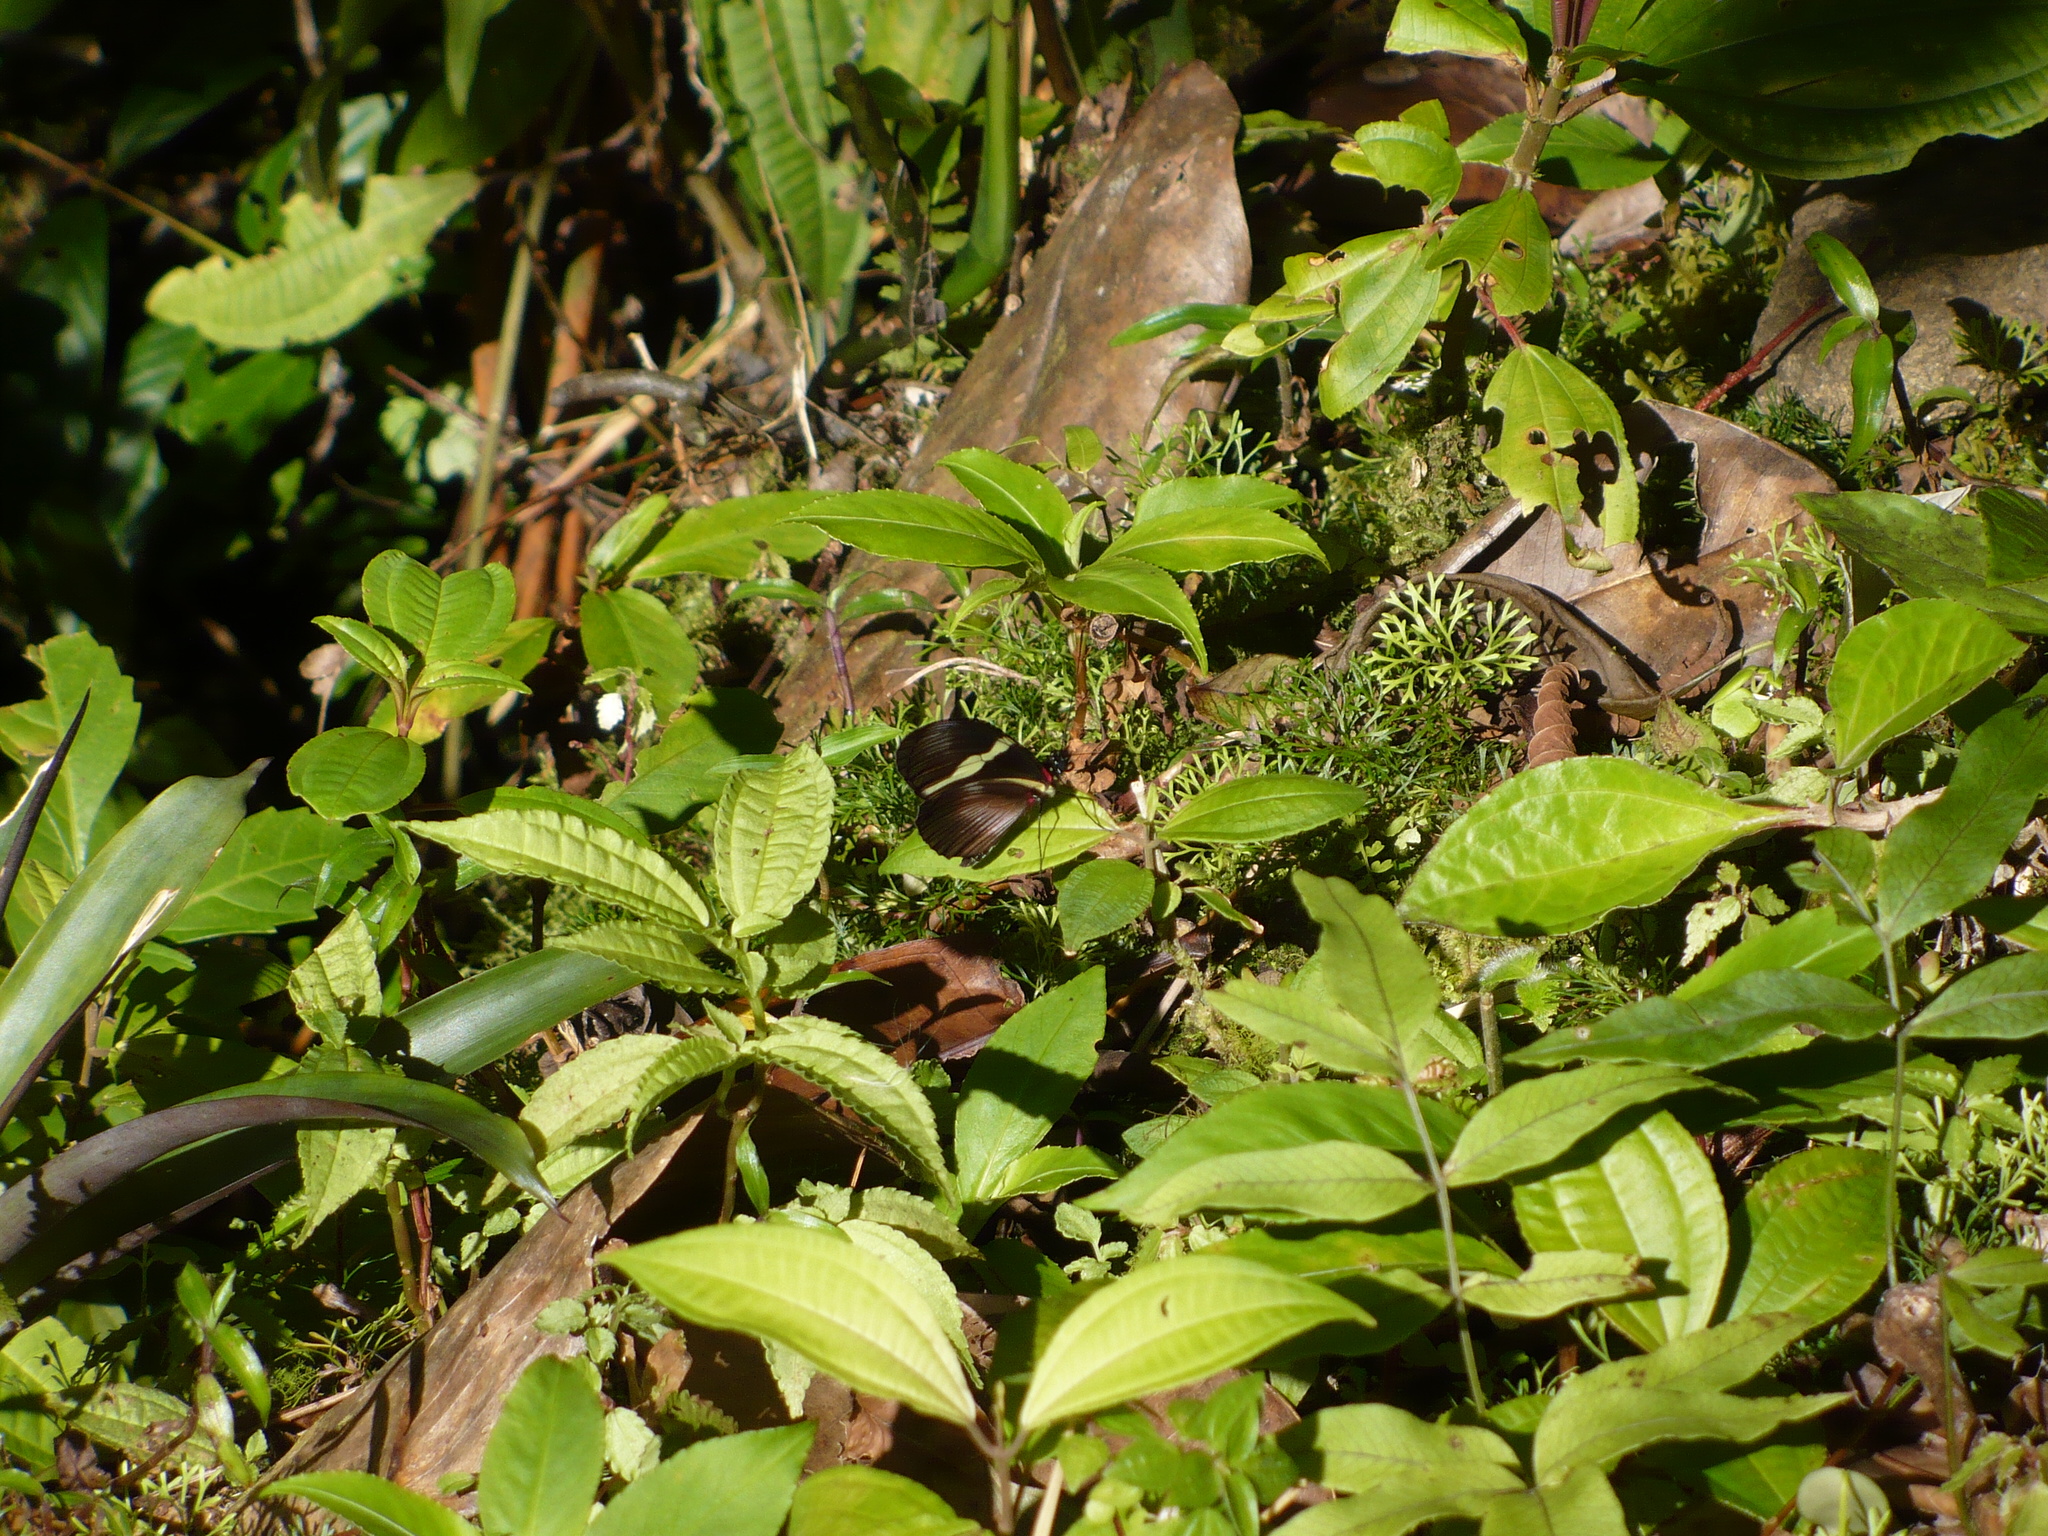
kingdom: Animalia
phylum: Arthropoda
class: Insecta
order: Lepidoptera
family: Nymphalidae
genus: Heliconius
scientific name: Heliconius clysonymus
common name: Clysonymus longwing
